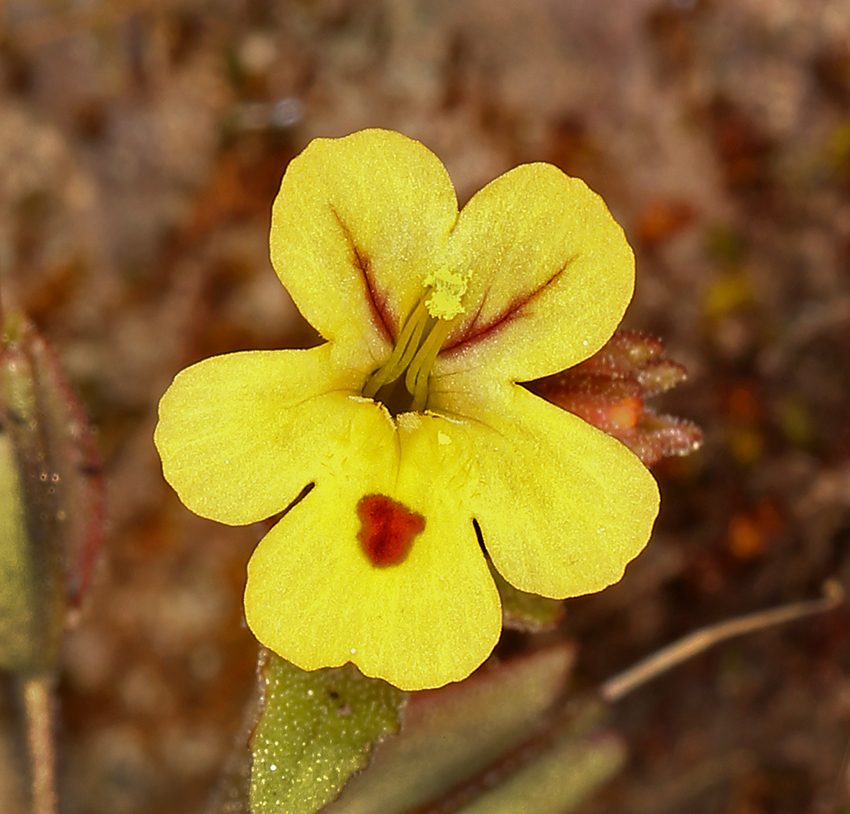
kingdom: Plantae
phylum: Tracheophyta
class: Magnoliopsida
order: Lamiales
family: Phrymaceae
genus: Erythranthe
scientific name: Erythranthe alsinoides
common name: Chickweed monkeyflower
